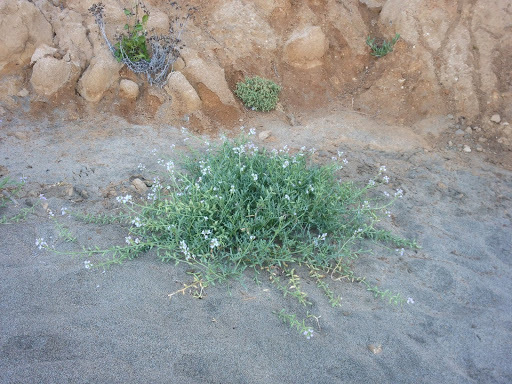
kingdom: Plantae
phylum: Tracheophyta
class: Magnoliopsida
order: Brassicales
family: Brassicaceae
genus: Cakile
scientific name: Cakile maritima
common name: Sea rocket
